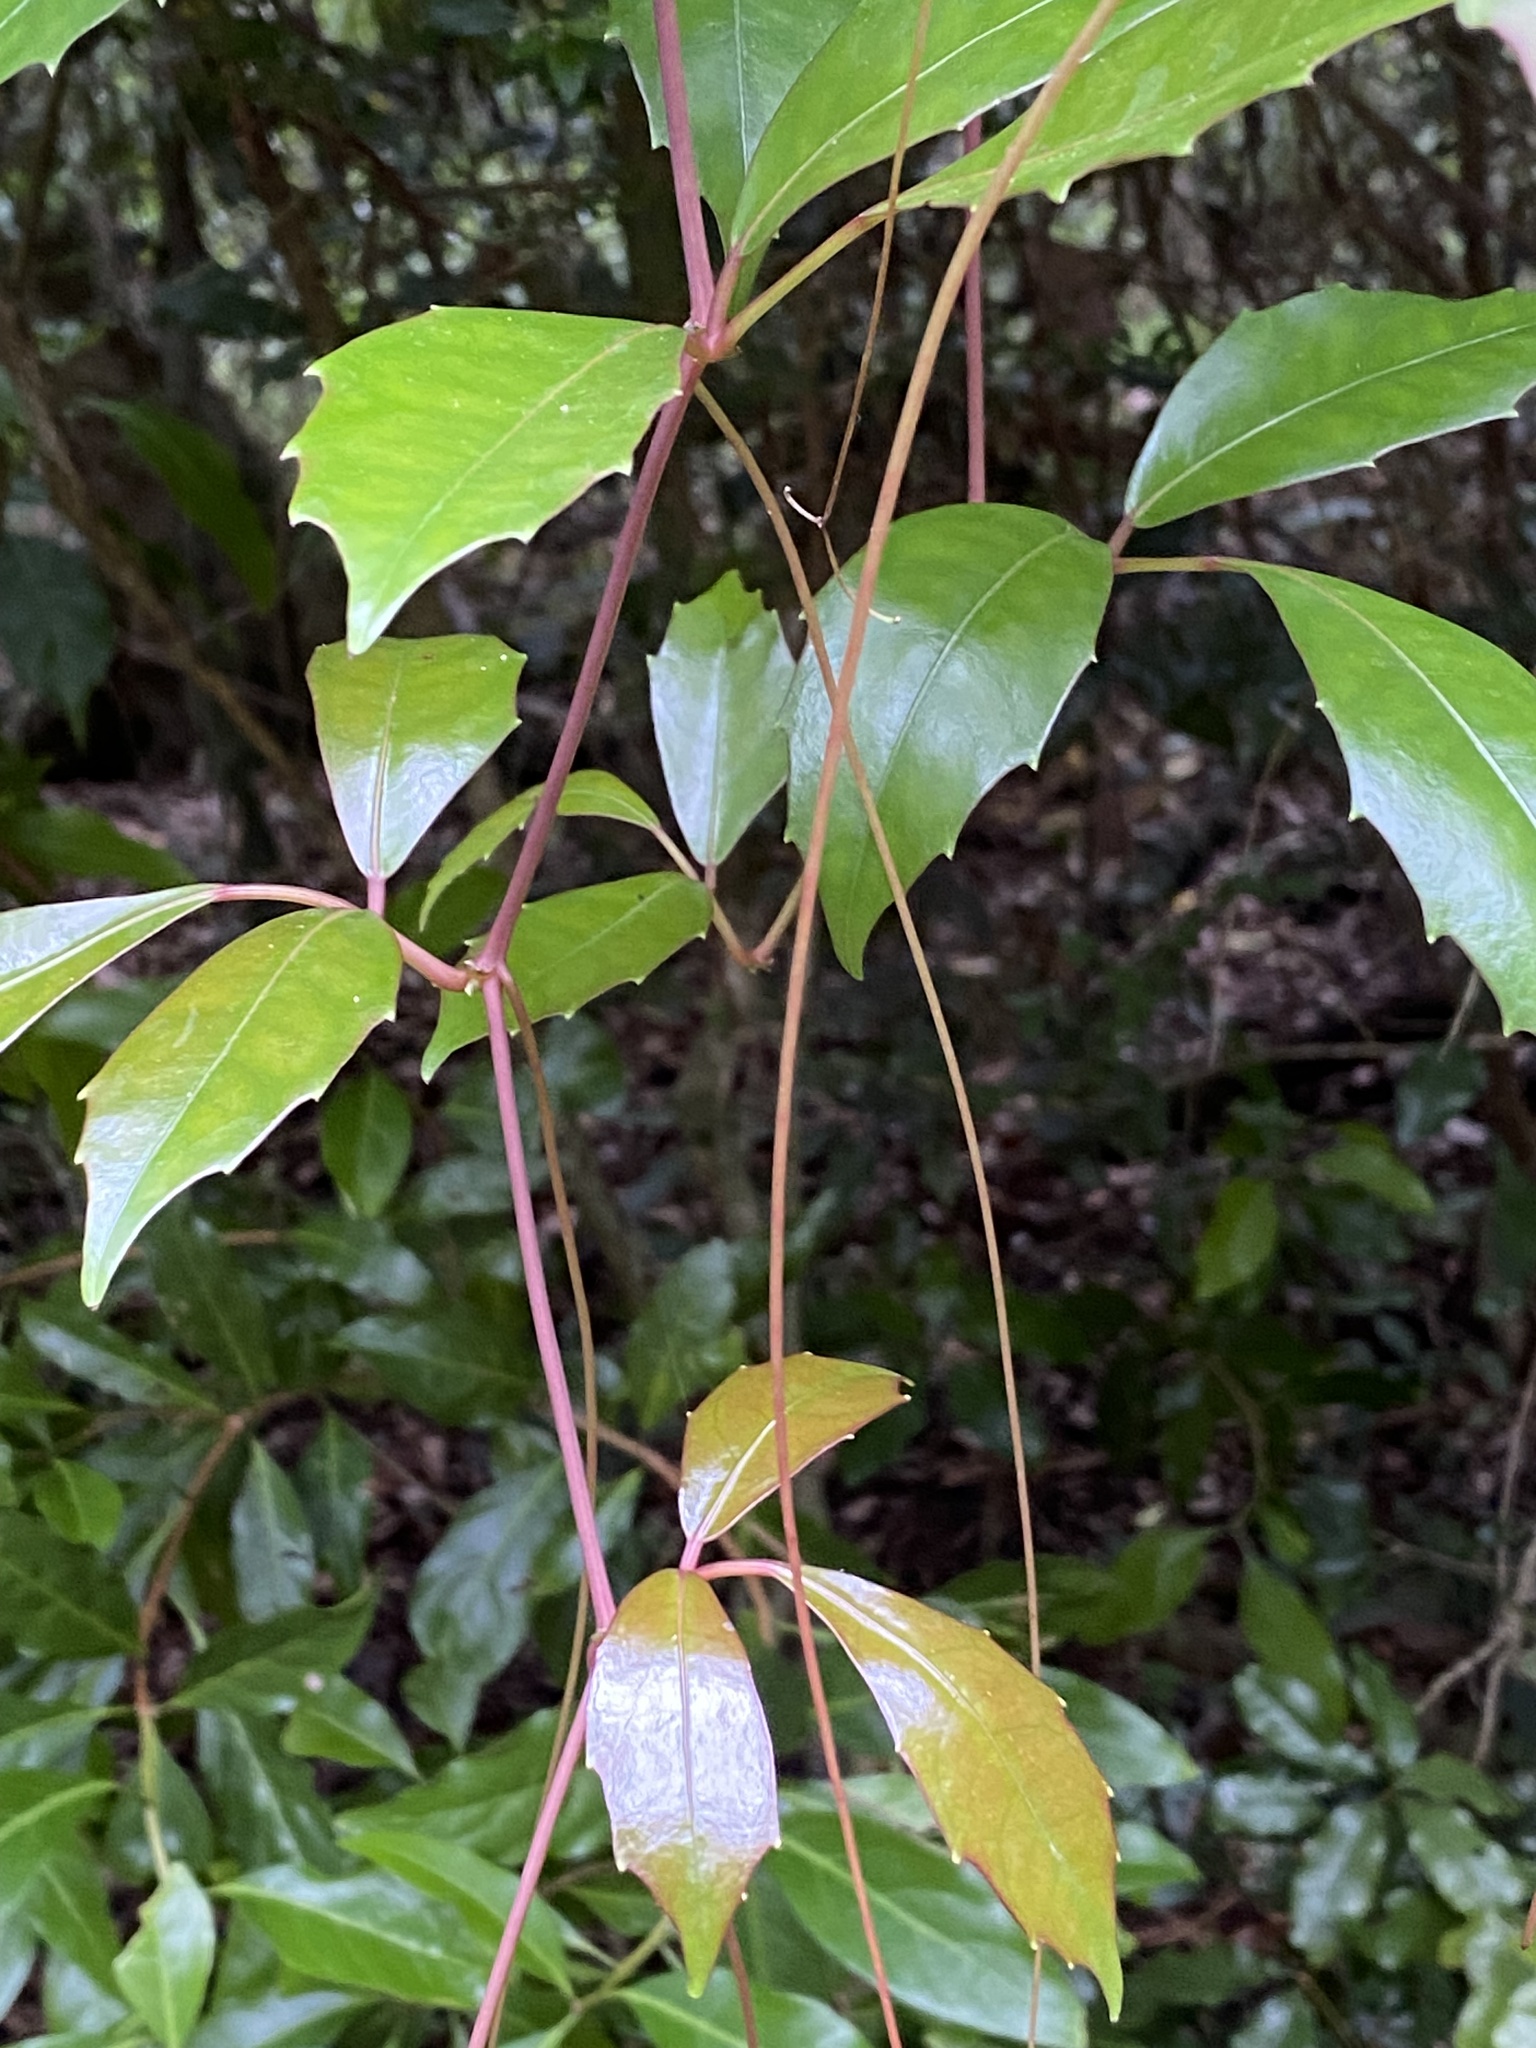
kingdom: Plantae
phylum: Tracheophyta
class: Magnoliopsida
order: Vitales
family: Vitaceae
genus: Tetrastigma
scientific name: Tetrastigma nitens
